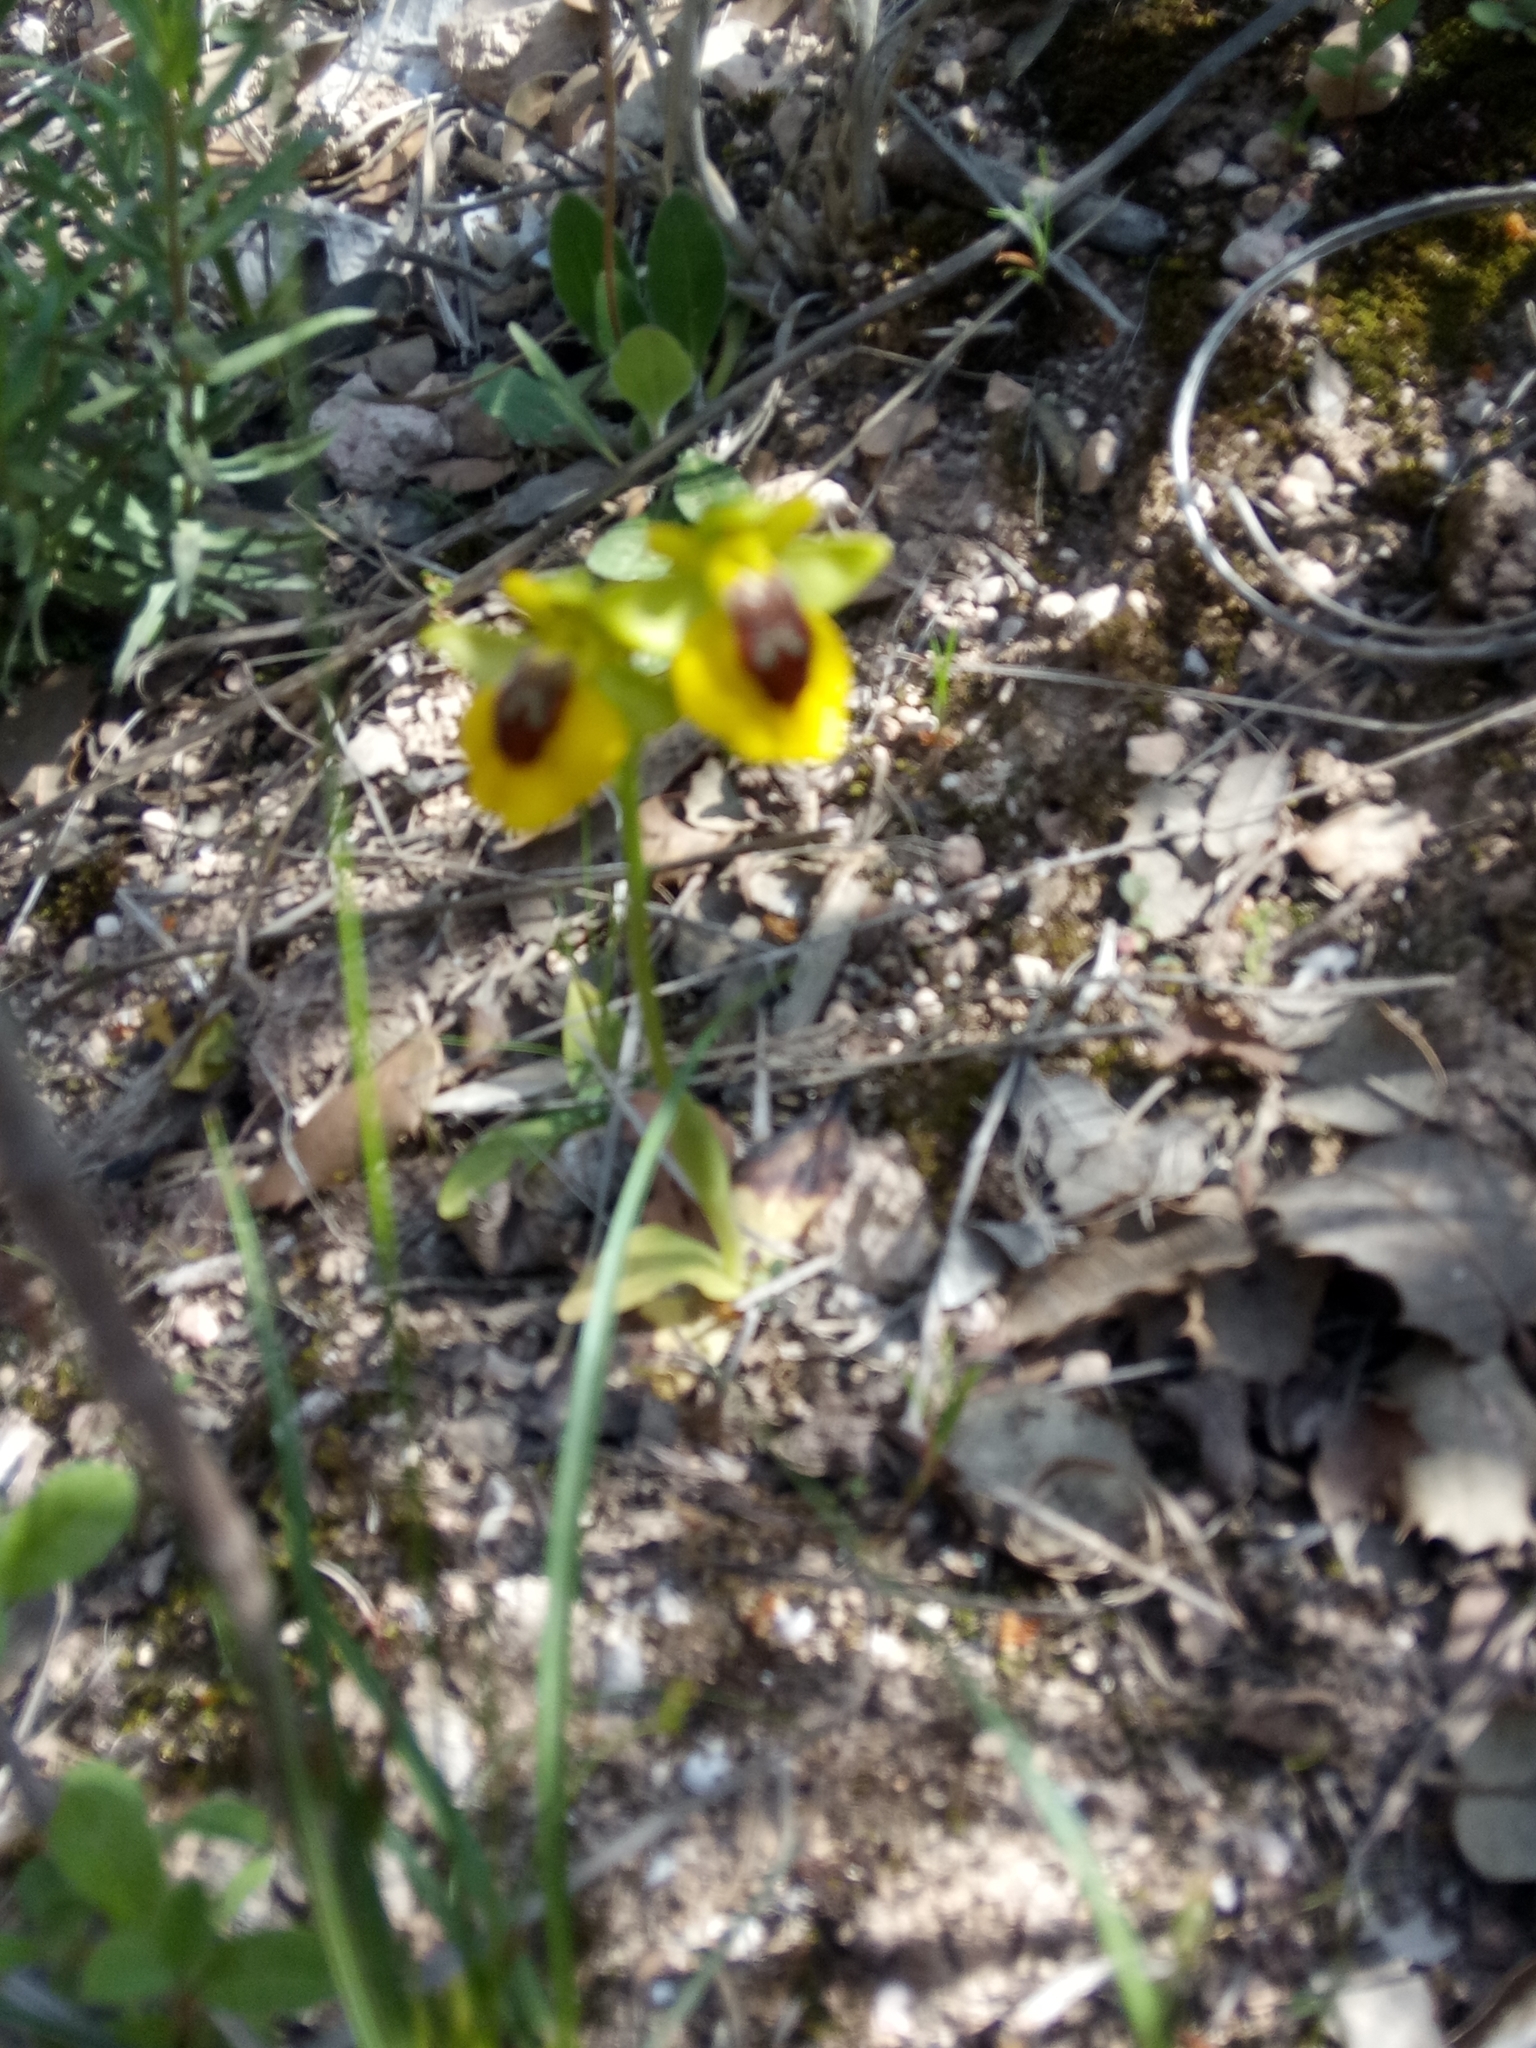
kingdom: Plantae
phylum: Tracheophyta
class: Liliopsida
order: Asparagales
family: Orchidaceae
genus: Ophrys
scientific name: Ophrys lutea
